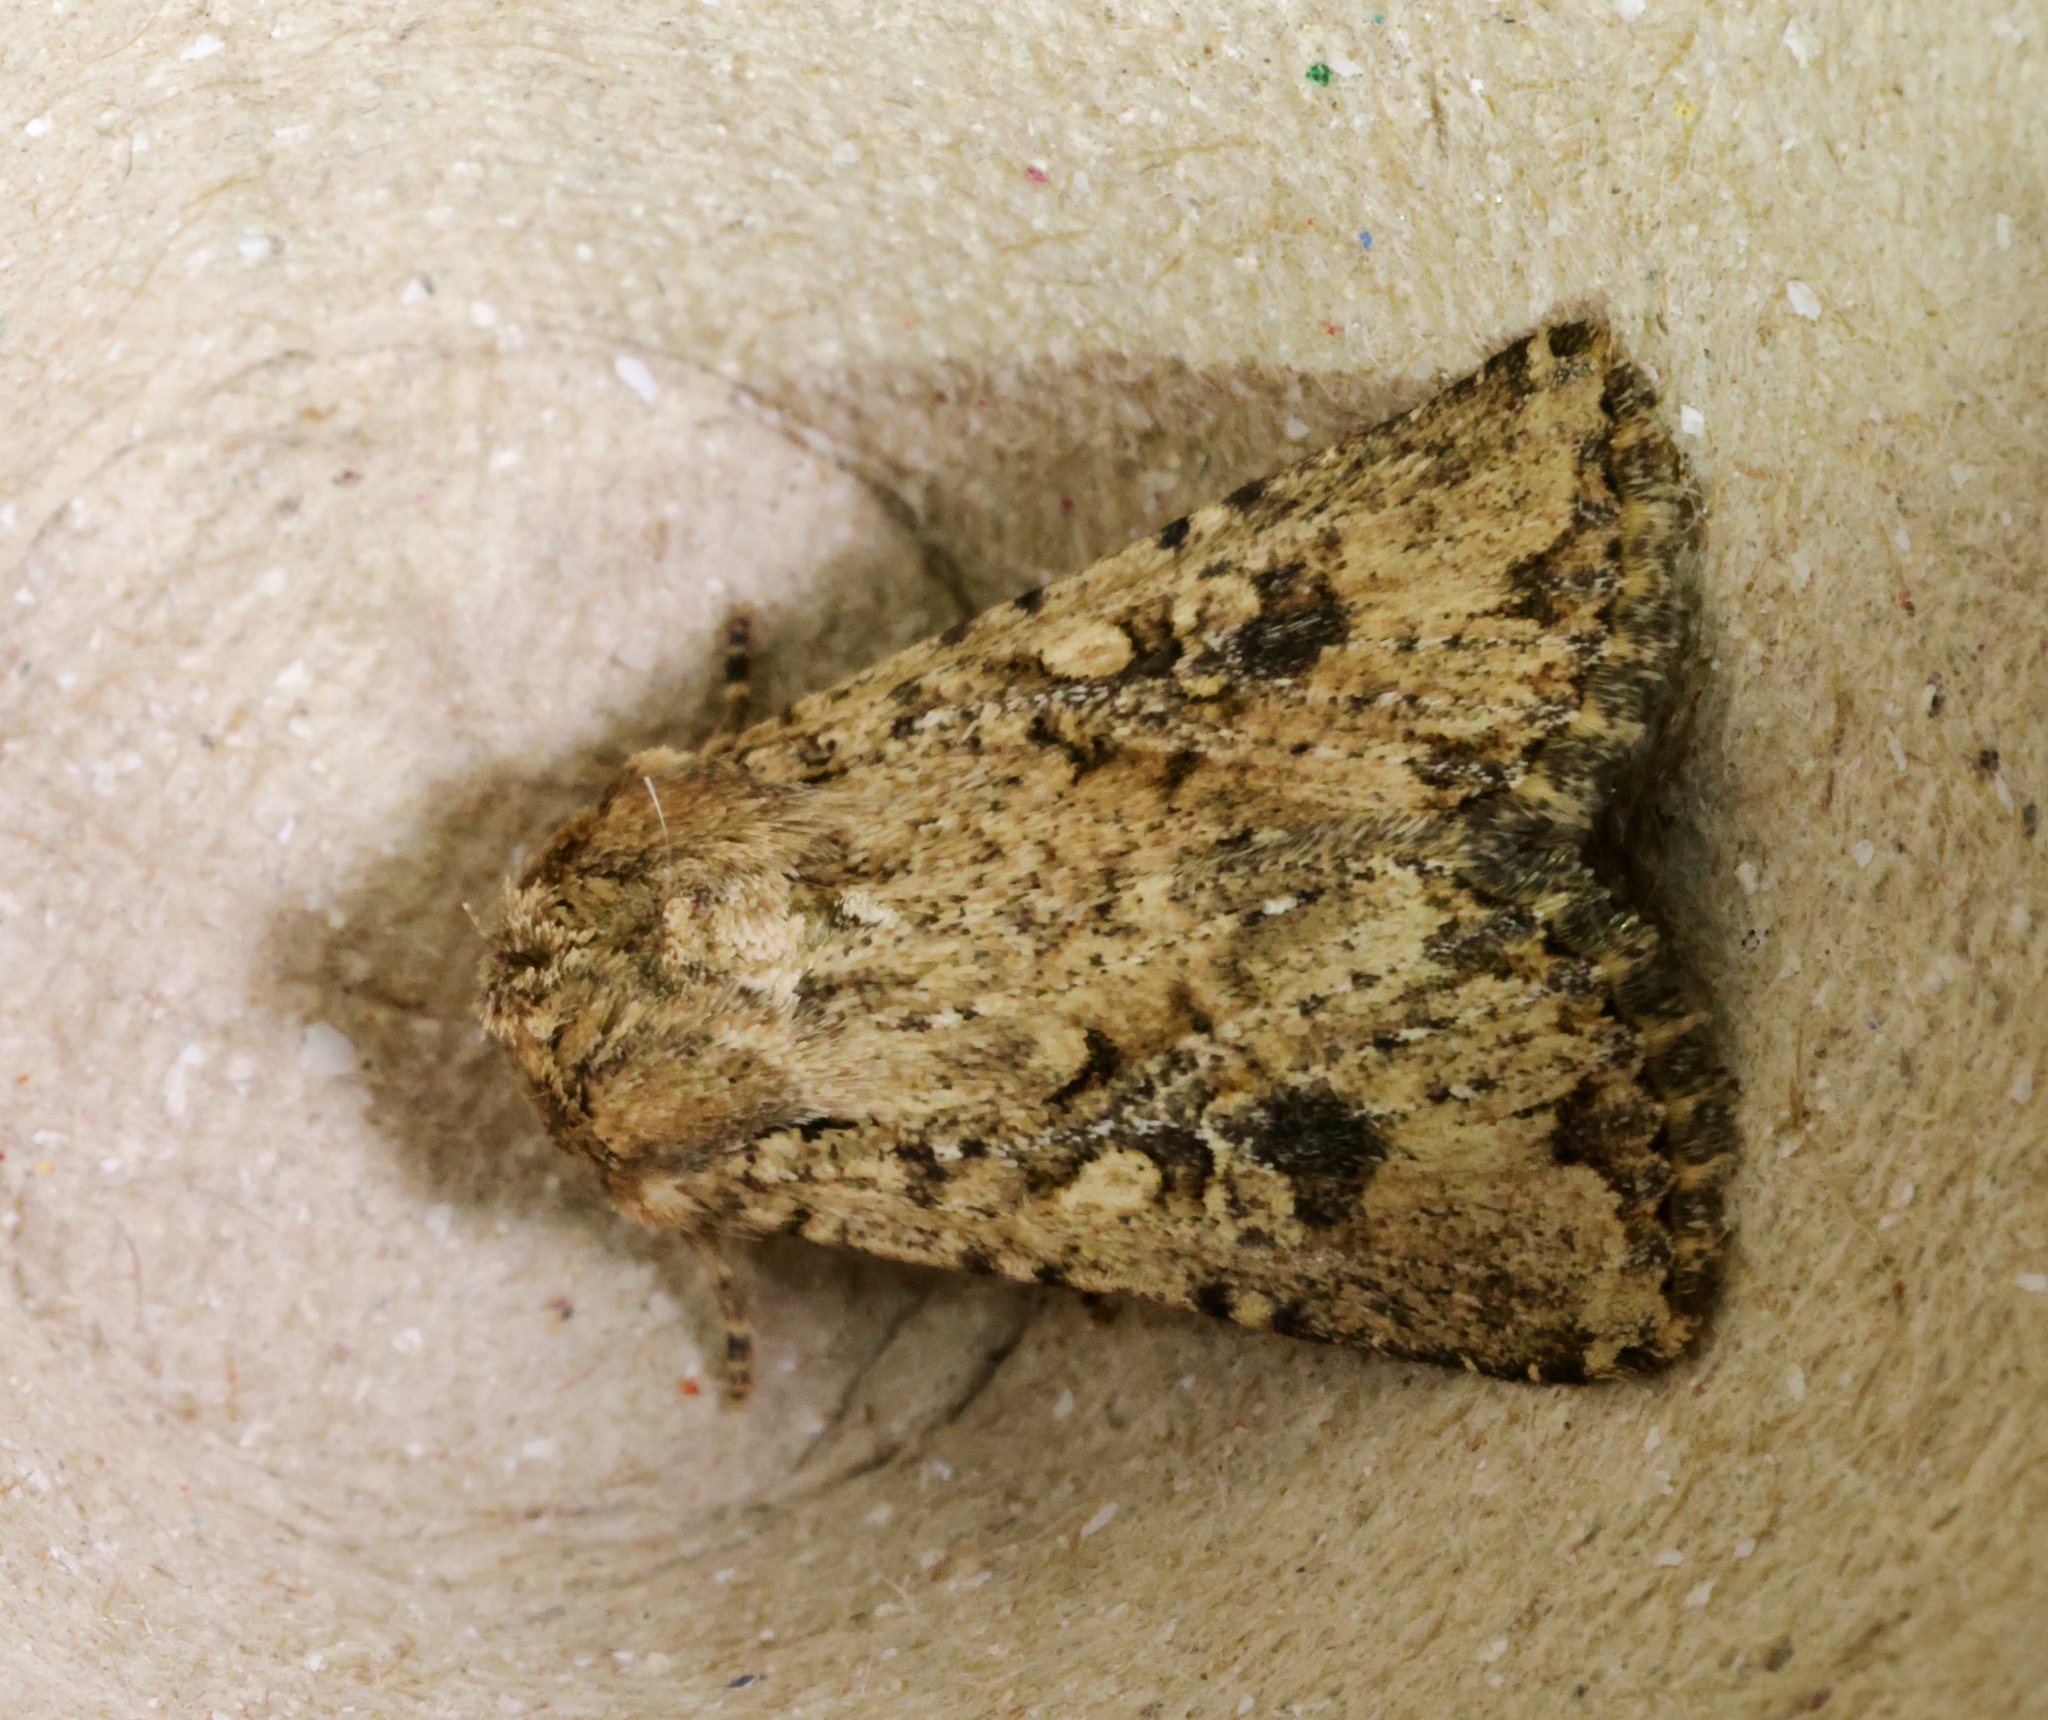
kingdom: Animalia
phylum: Arthropoda
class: Insecta
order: Lepidoptera
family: Noctuidae
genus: Mythimna
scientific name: Mythimna snelleni
